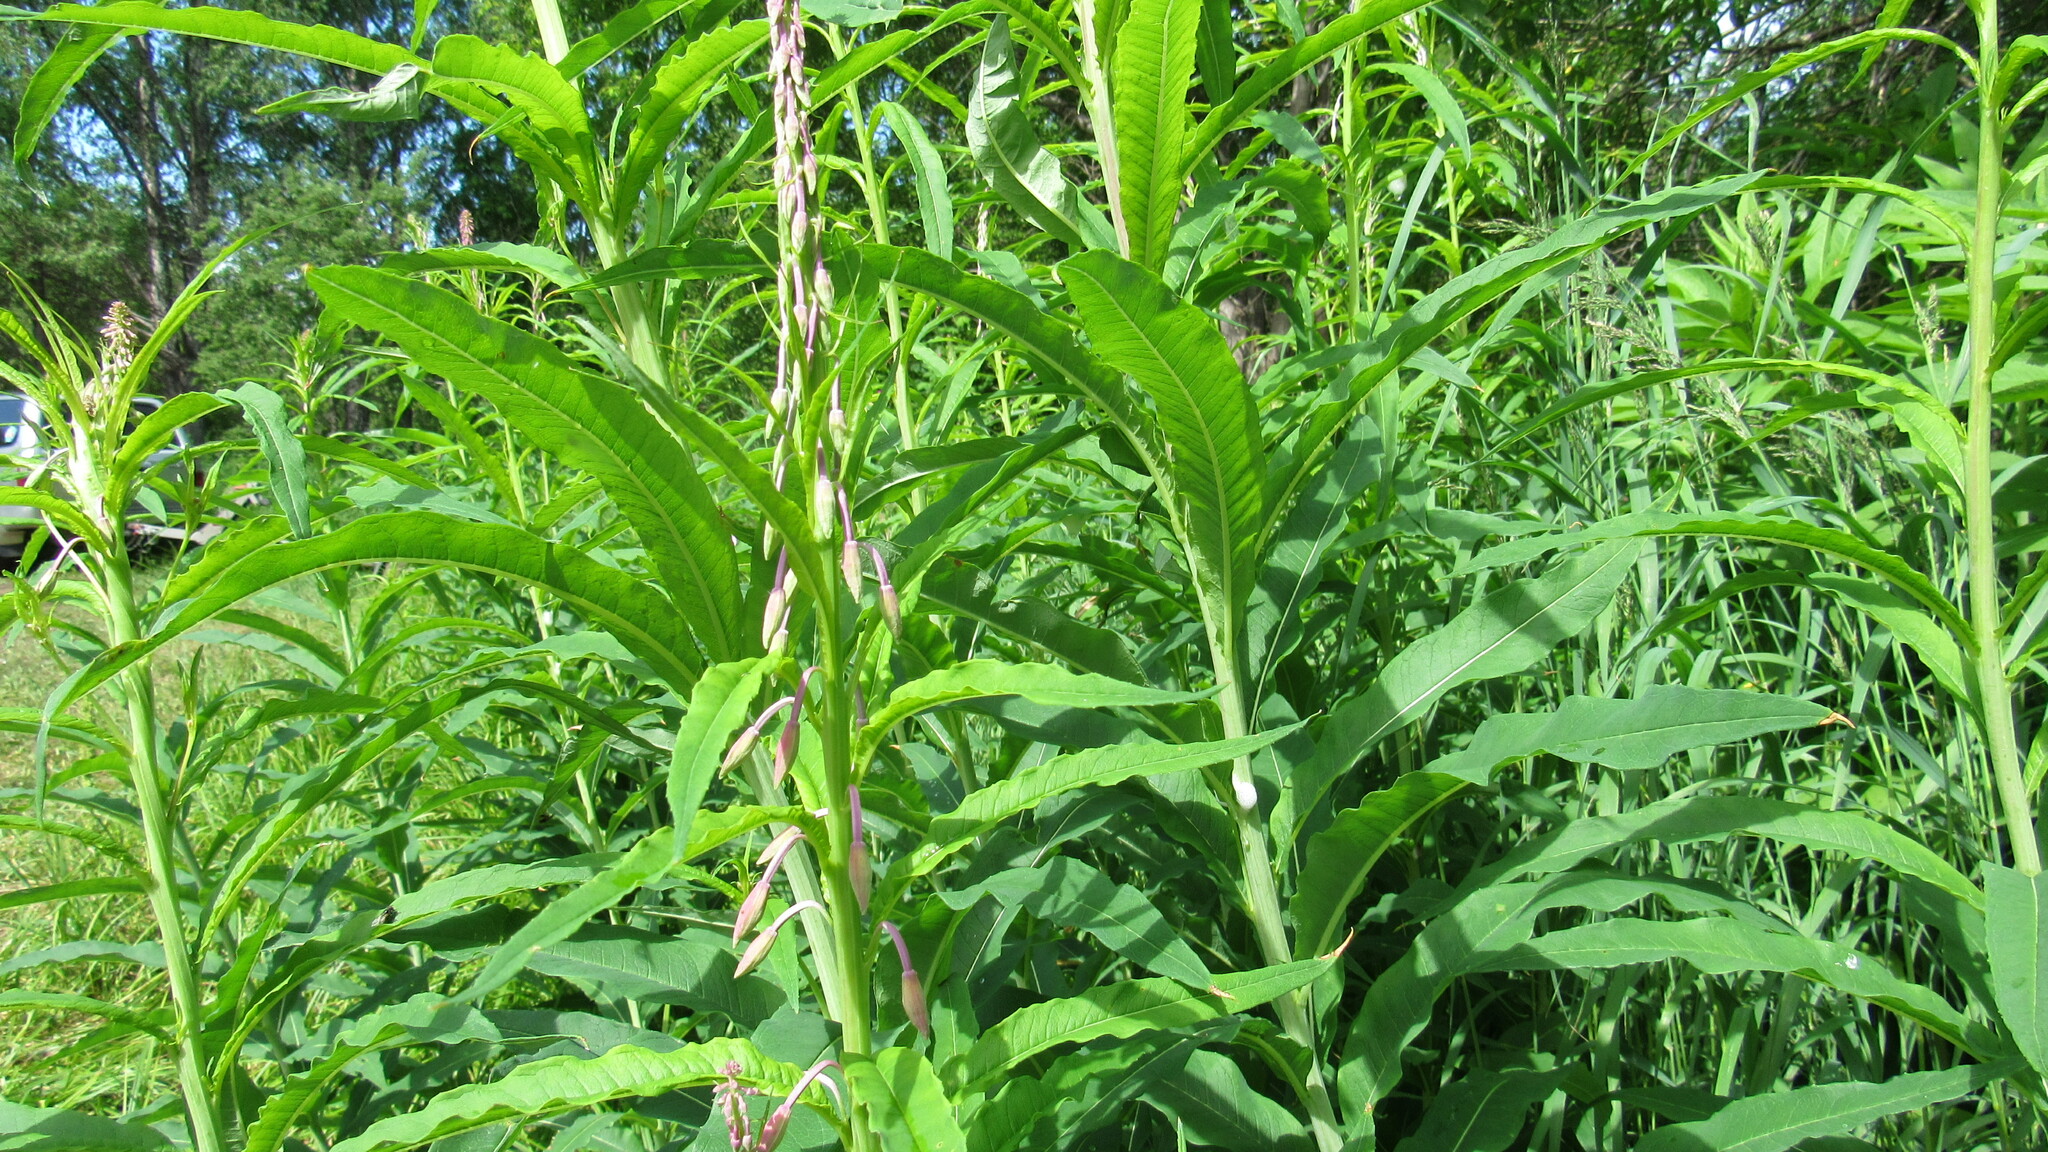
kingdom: Plantae
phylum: Tracheophyta
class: Magnoliopsida
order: Myrtales
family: Onagraceae
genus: Chamaenerion
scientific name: Chamaenerion angustifolium
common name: Fireweed
